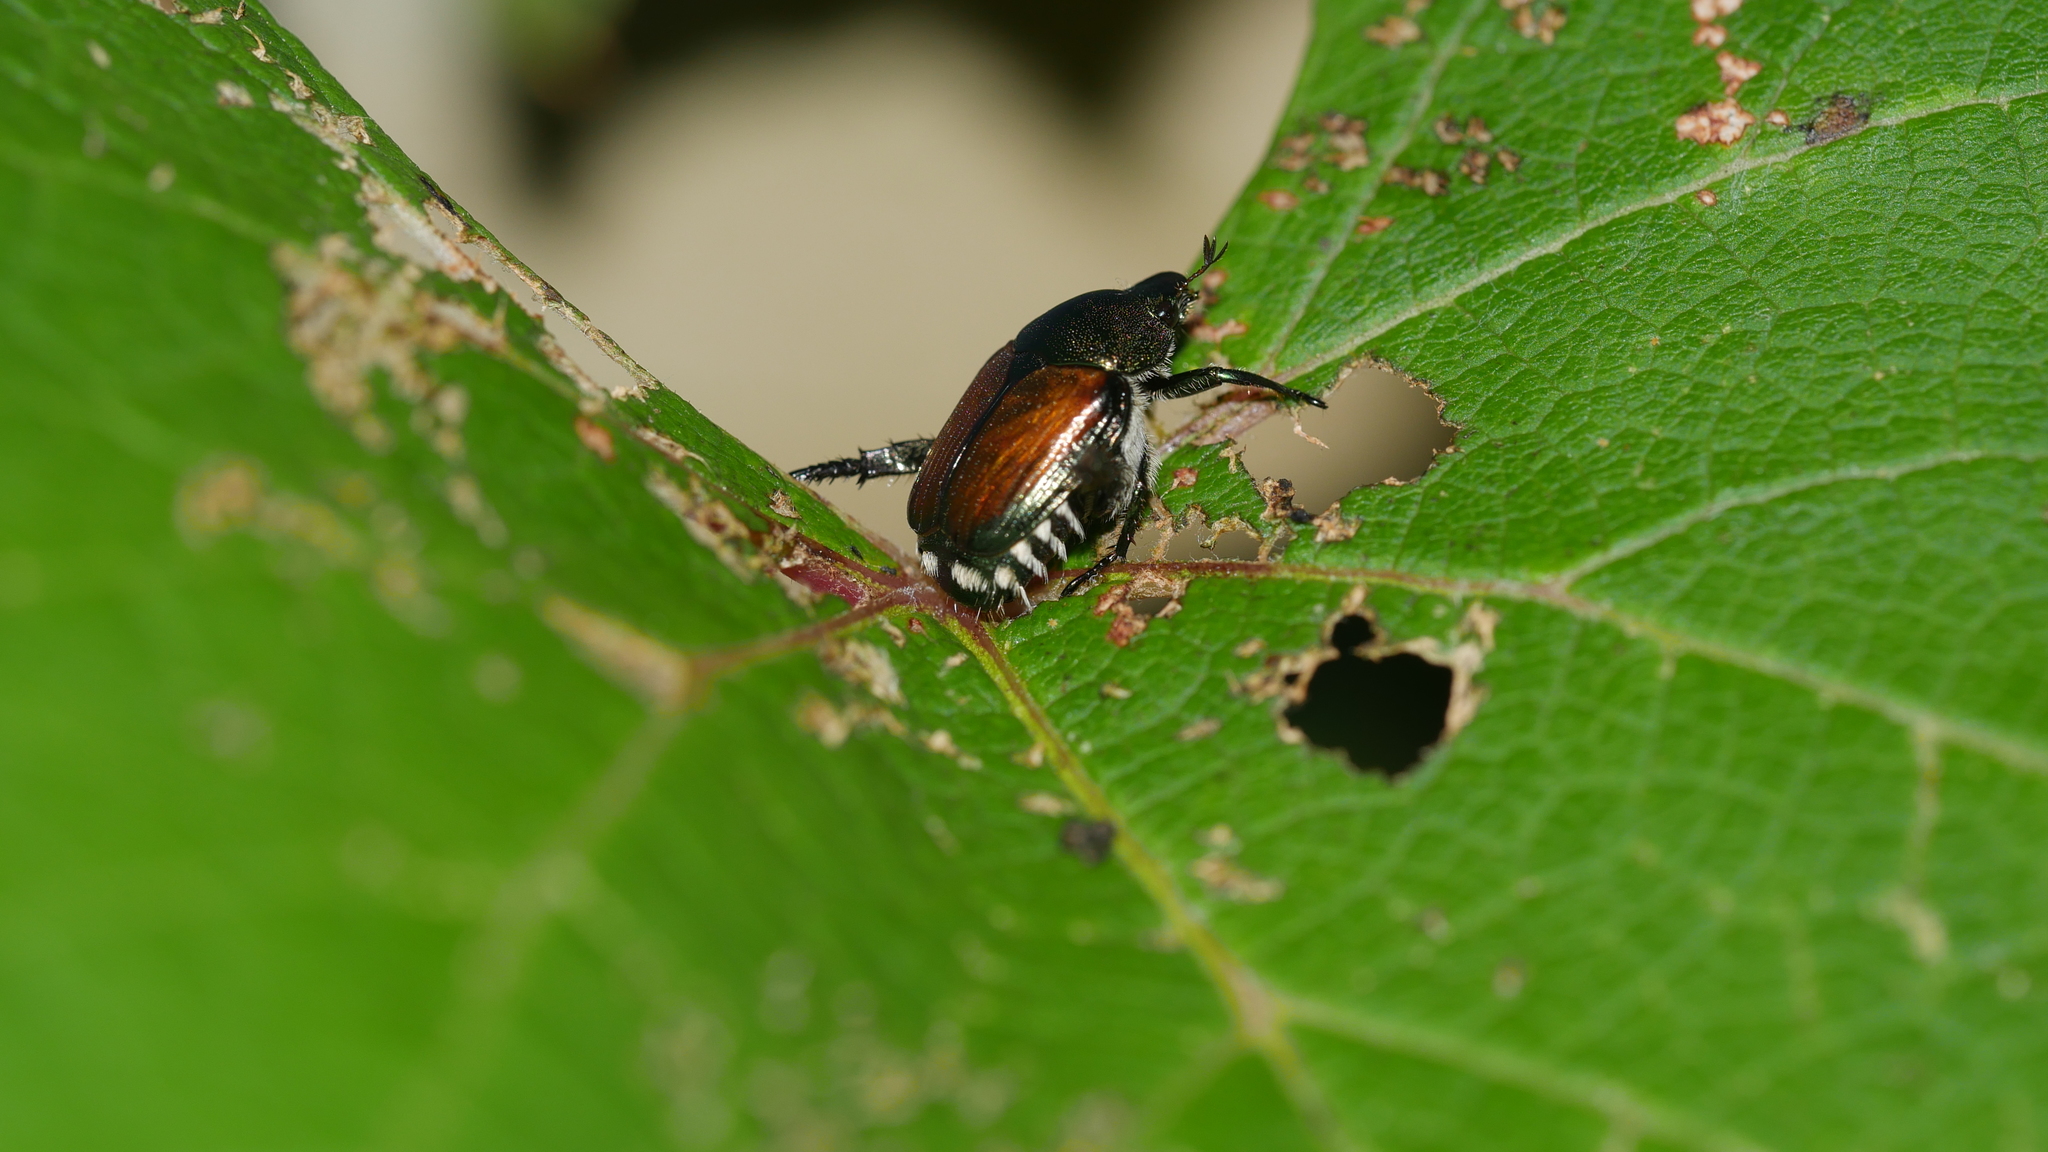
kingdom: Animalia
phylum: Arthropoda
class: Insecta
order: Coleoptera
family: Scarabaeidae
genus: Popillia
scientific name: Popillia japonica
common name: Japanese beetle
